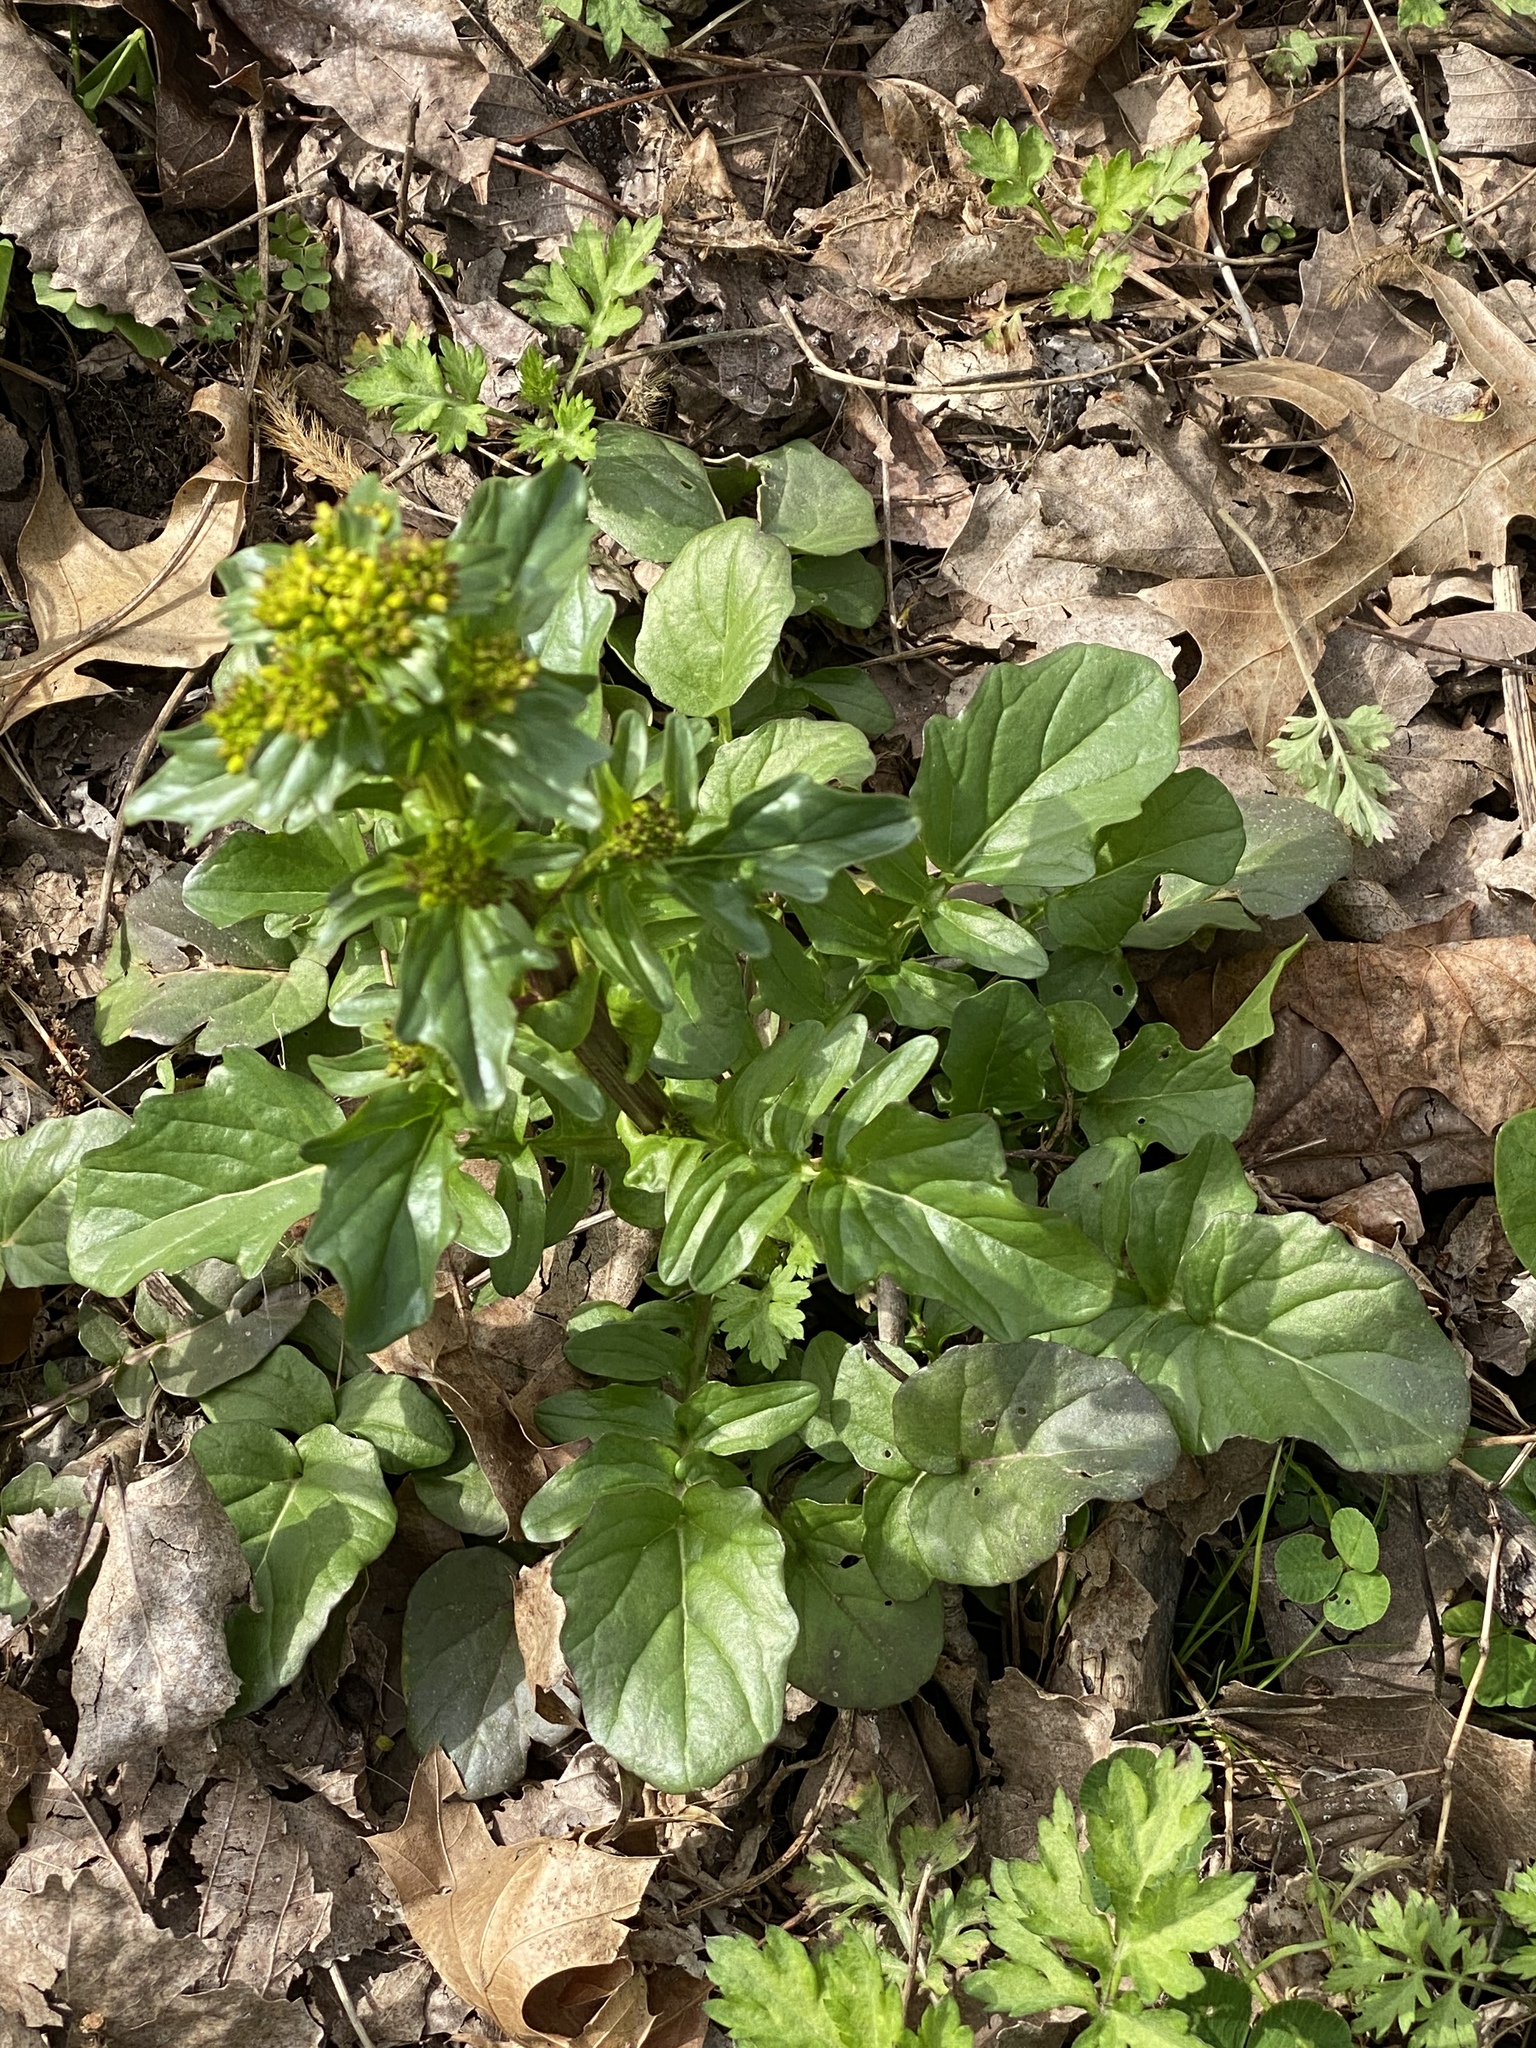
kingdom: Plantae
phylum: Tracheophyta
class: Magnoliopsida
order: Brassicales
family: Brassicaceae
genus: Barbarea
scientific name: Barbarea vulgaris
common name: Cressy-greens
